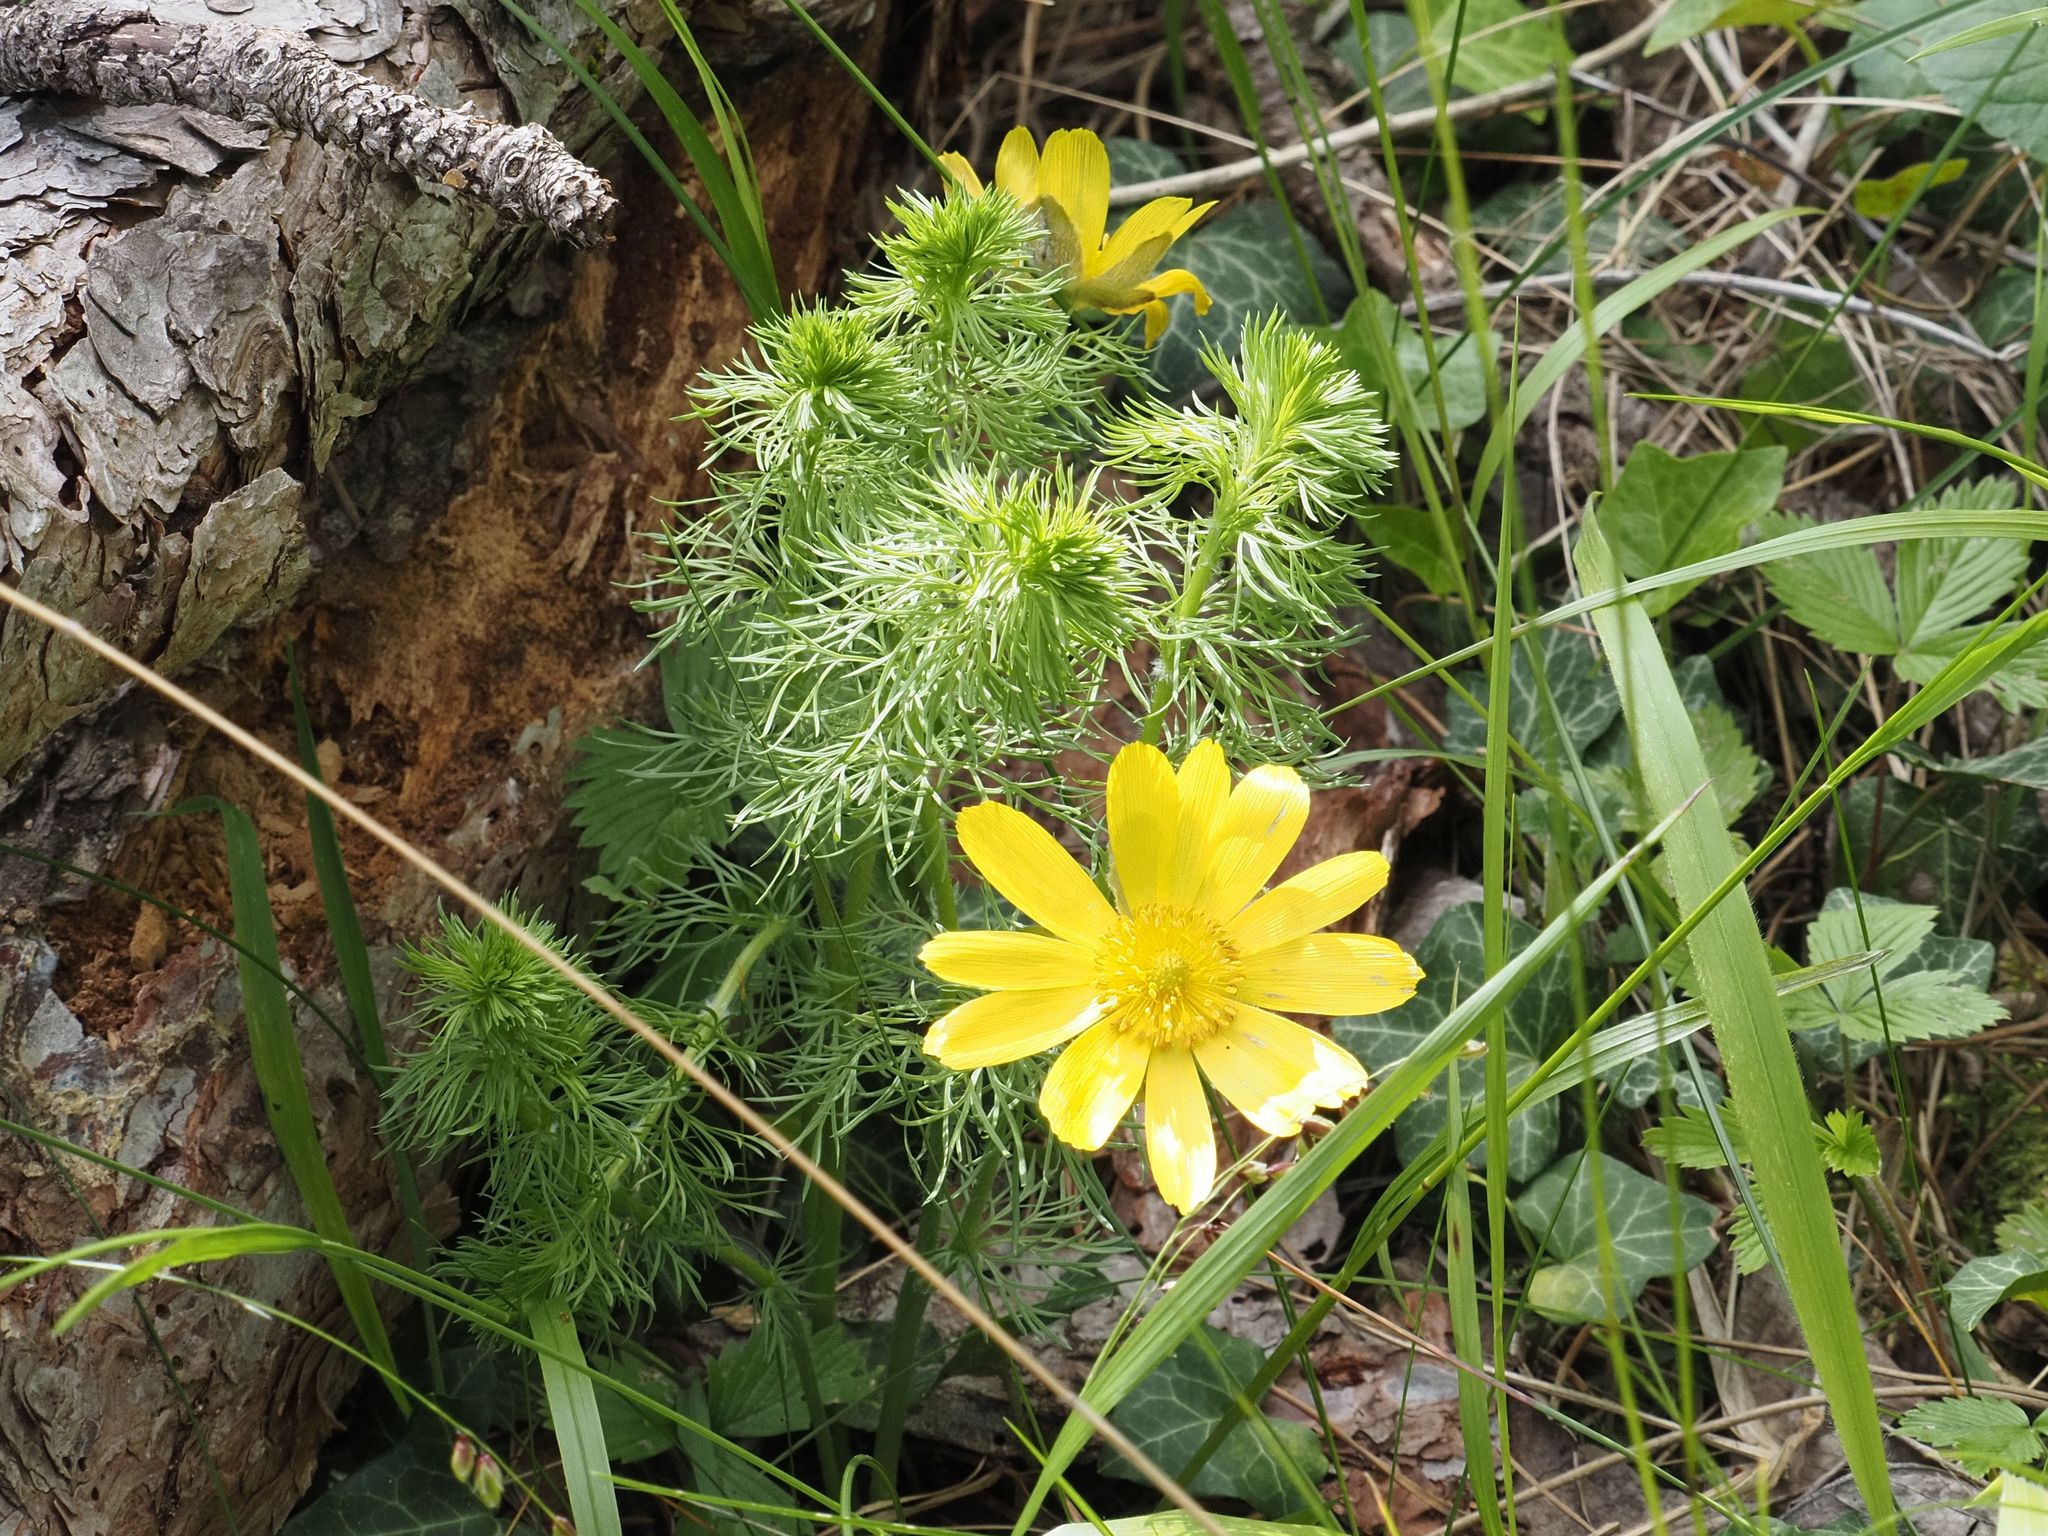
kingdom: Plantae
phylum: Tracheophyta
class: Magnoliopsida
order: Ranunculales
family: Ranunculaceae
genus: Adonis
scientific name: Adonis vernalis
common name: Yellow pheasants-eye
